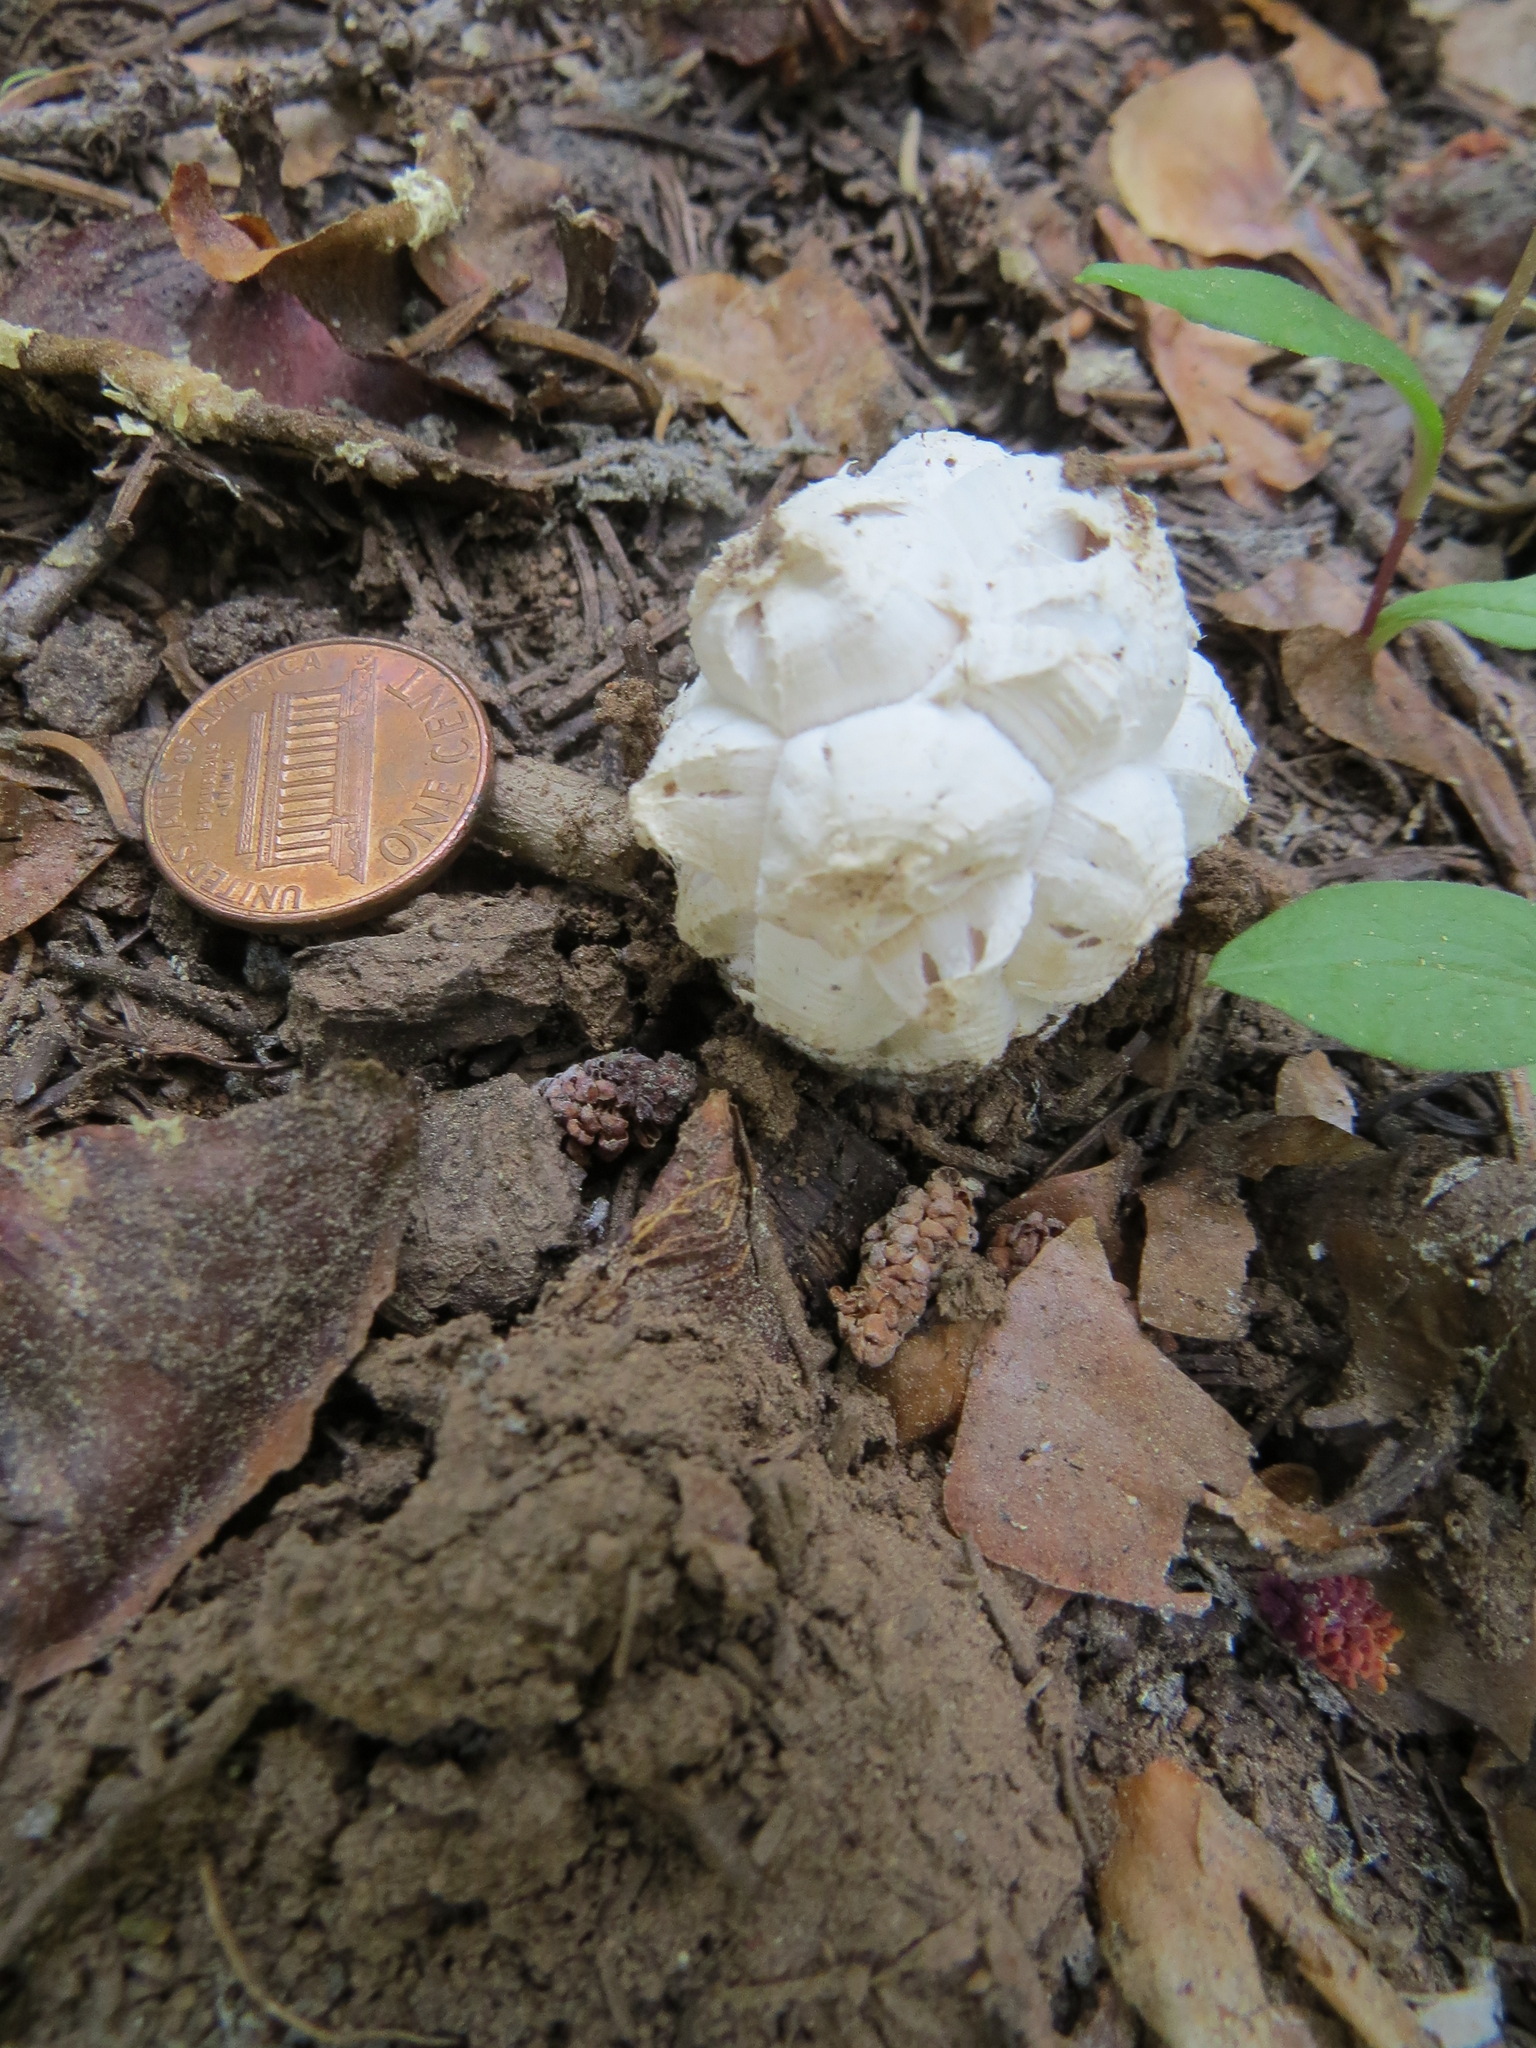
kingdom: Fungi
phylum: Basidiomycota
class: Agaricomycetes
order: Agaricales
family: Lycoperdaceae
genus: Calvatia
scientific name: Calvatia sculpta
